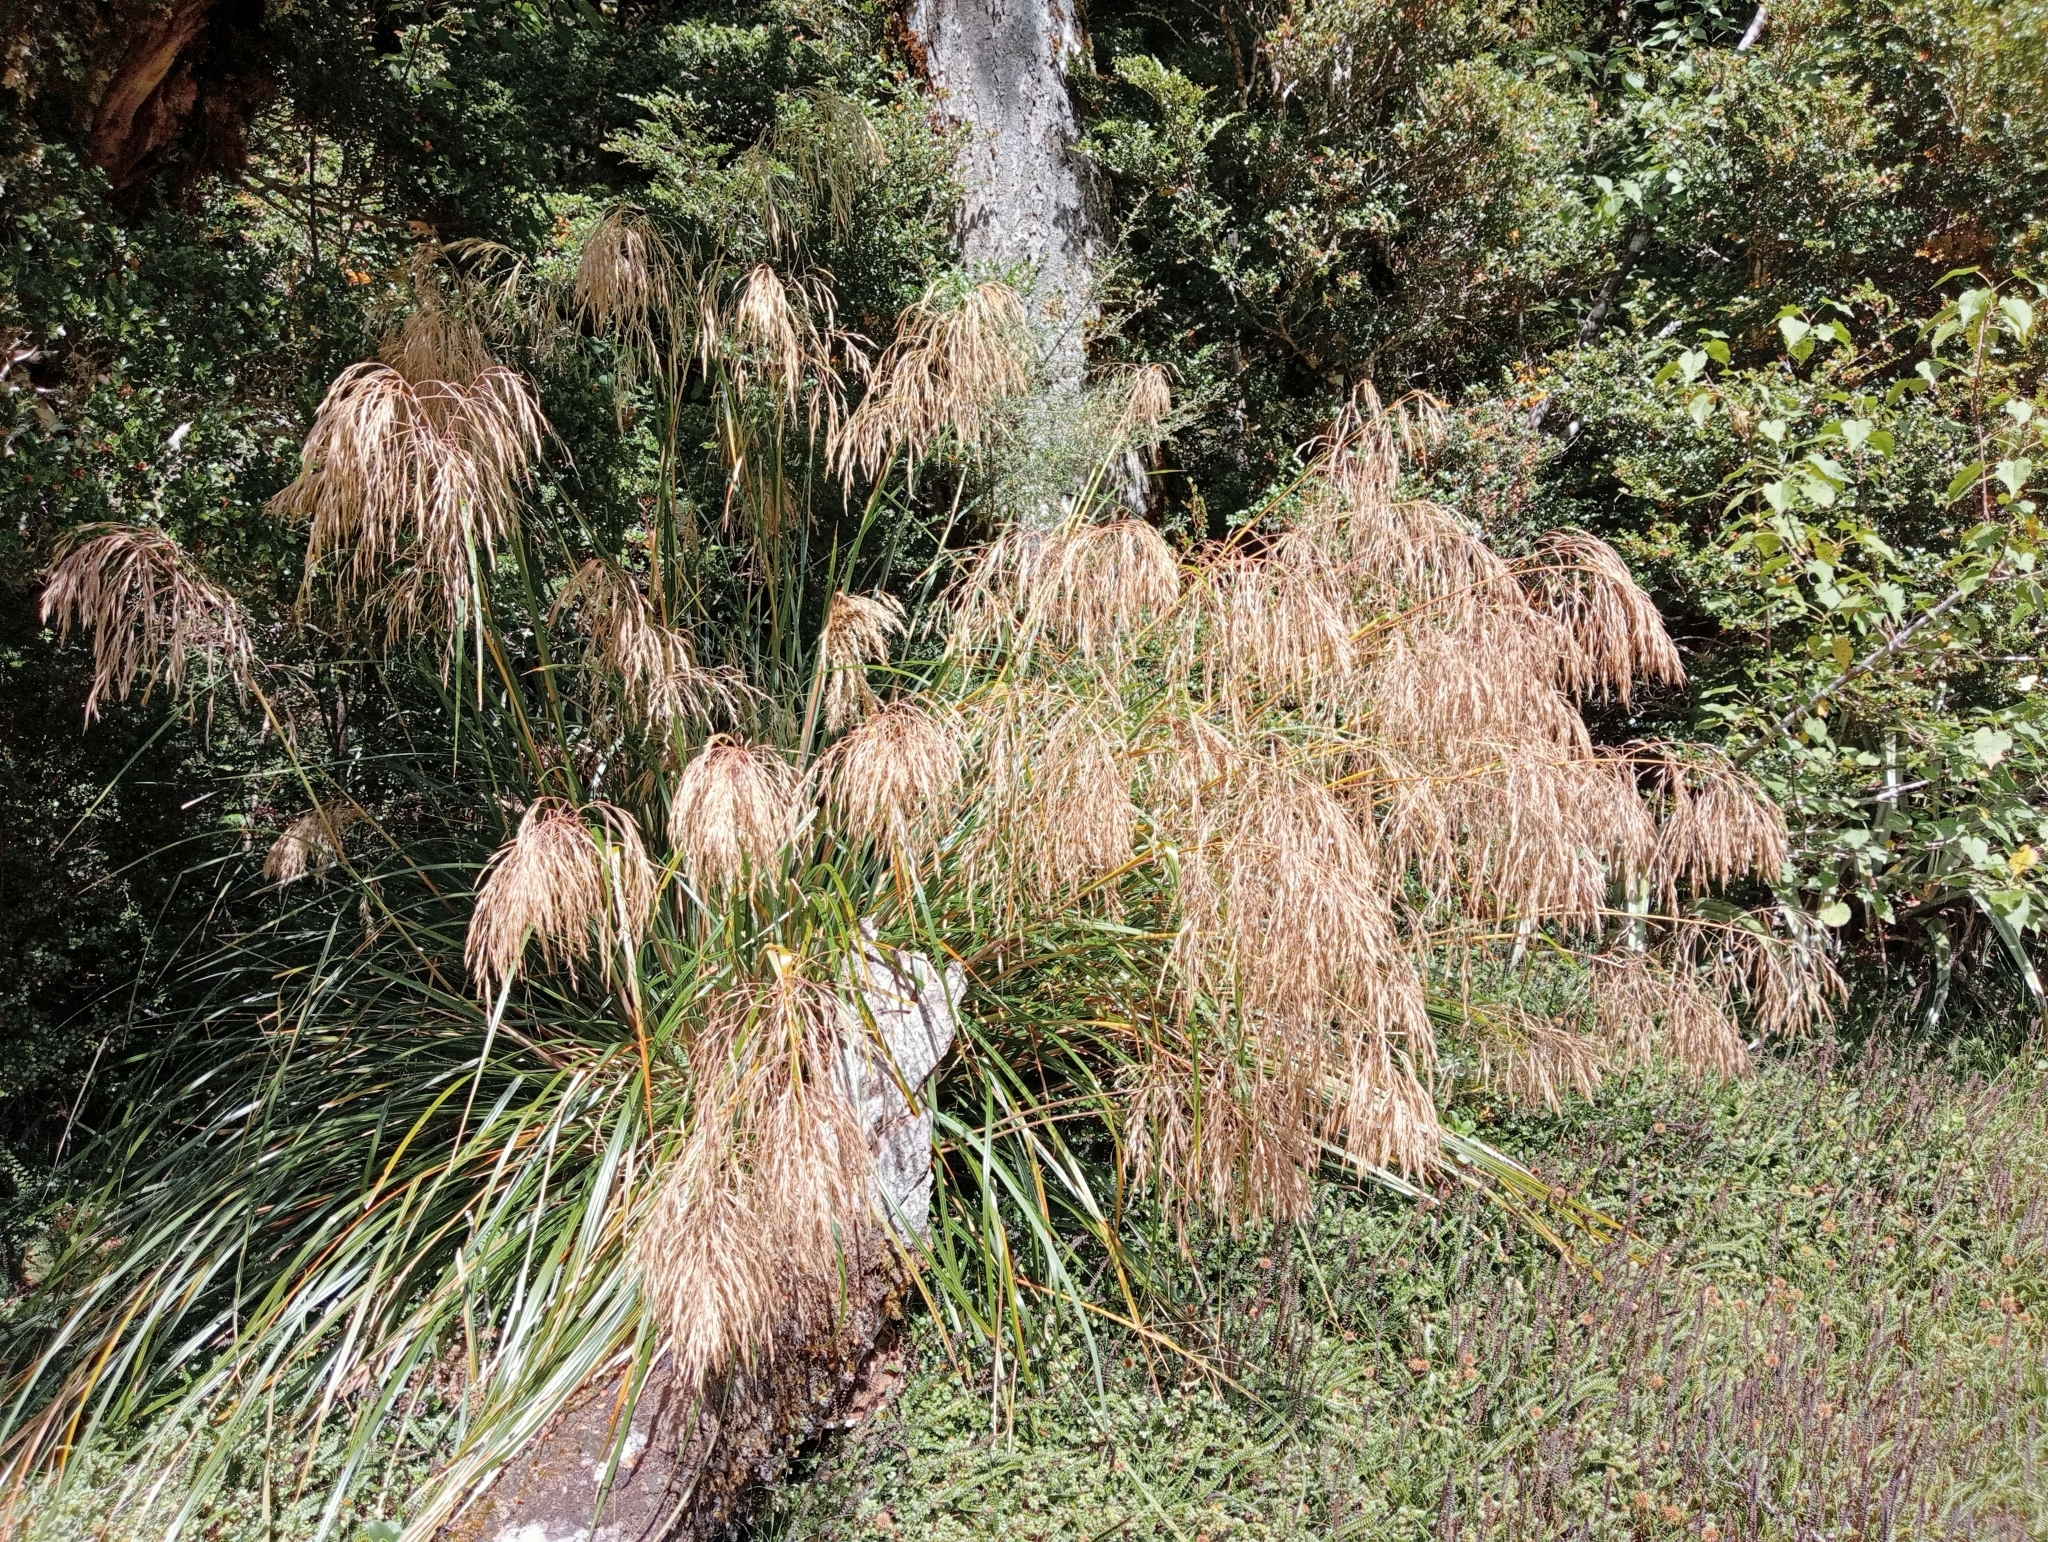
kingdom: Plantae
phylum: Tracheophyta
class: Liliopsida
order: Poales
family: Poaceae
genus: Chionochloa
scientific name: Chionochloa conspicua
